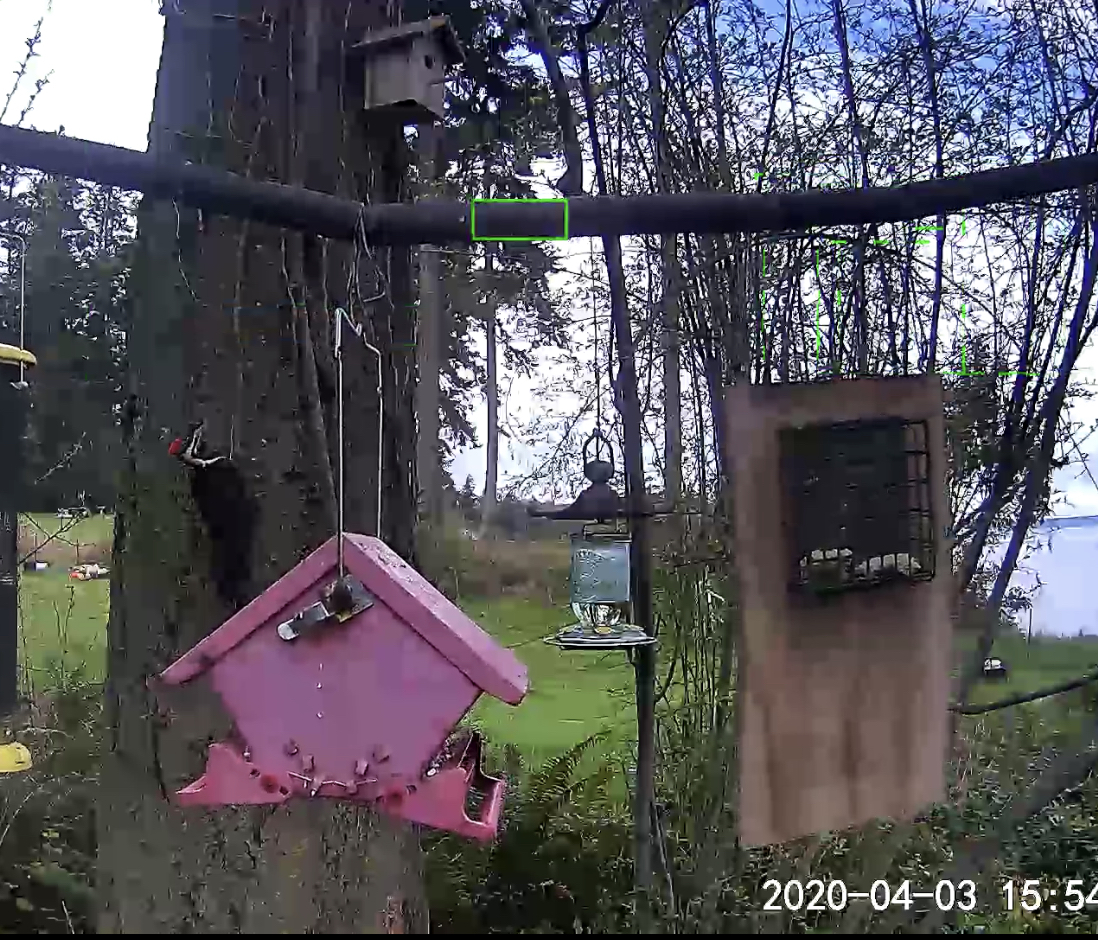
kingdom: Animalia
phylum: Chordata
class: Aves
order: Piciformes
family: Picidae
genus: Dryocopus
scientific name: Dryocopus pileatus
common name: Pileated woodpecker
